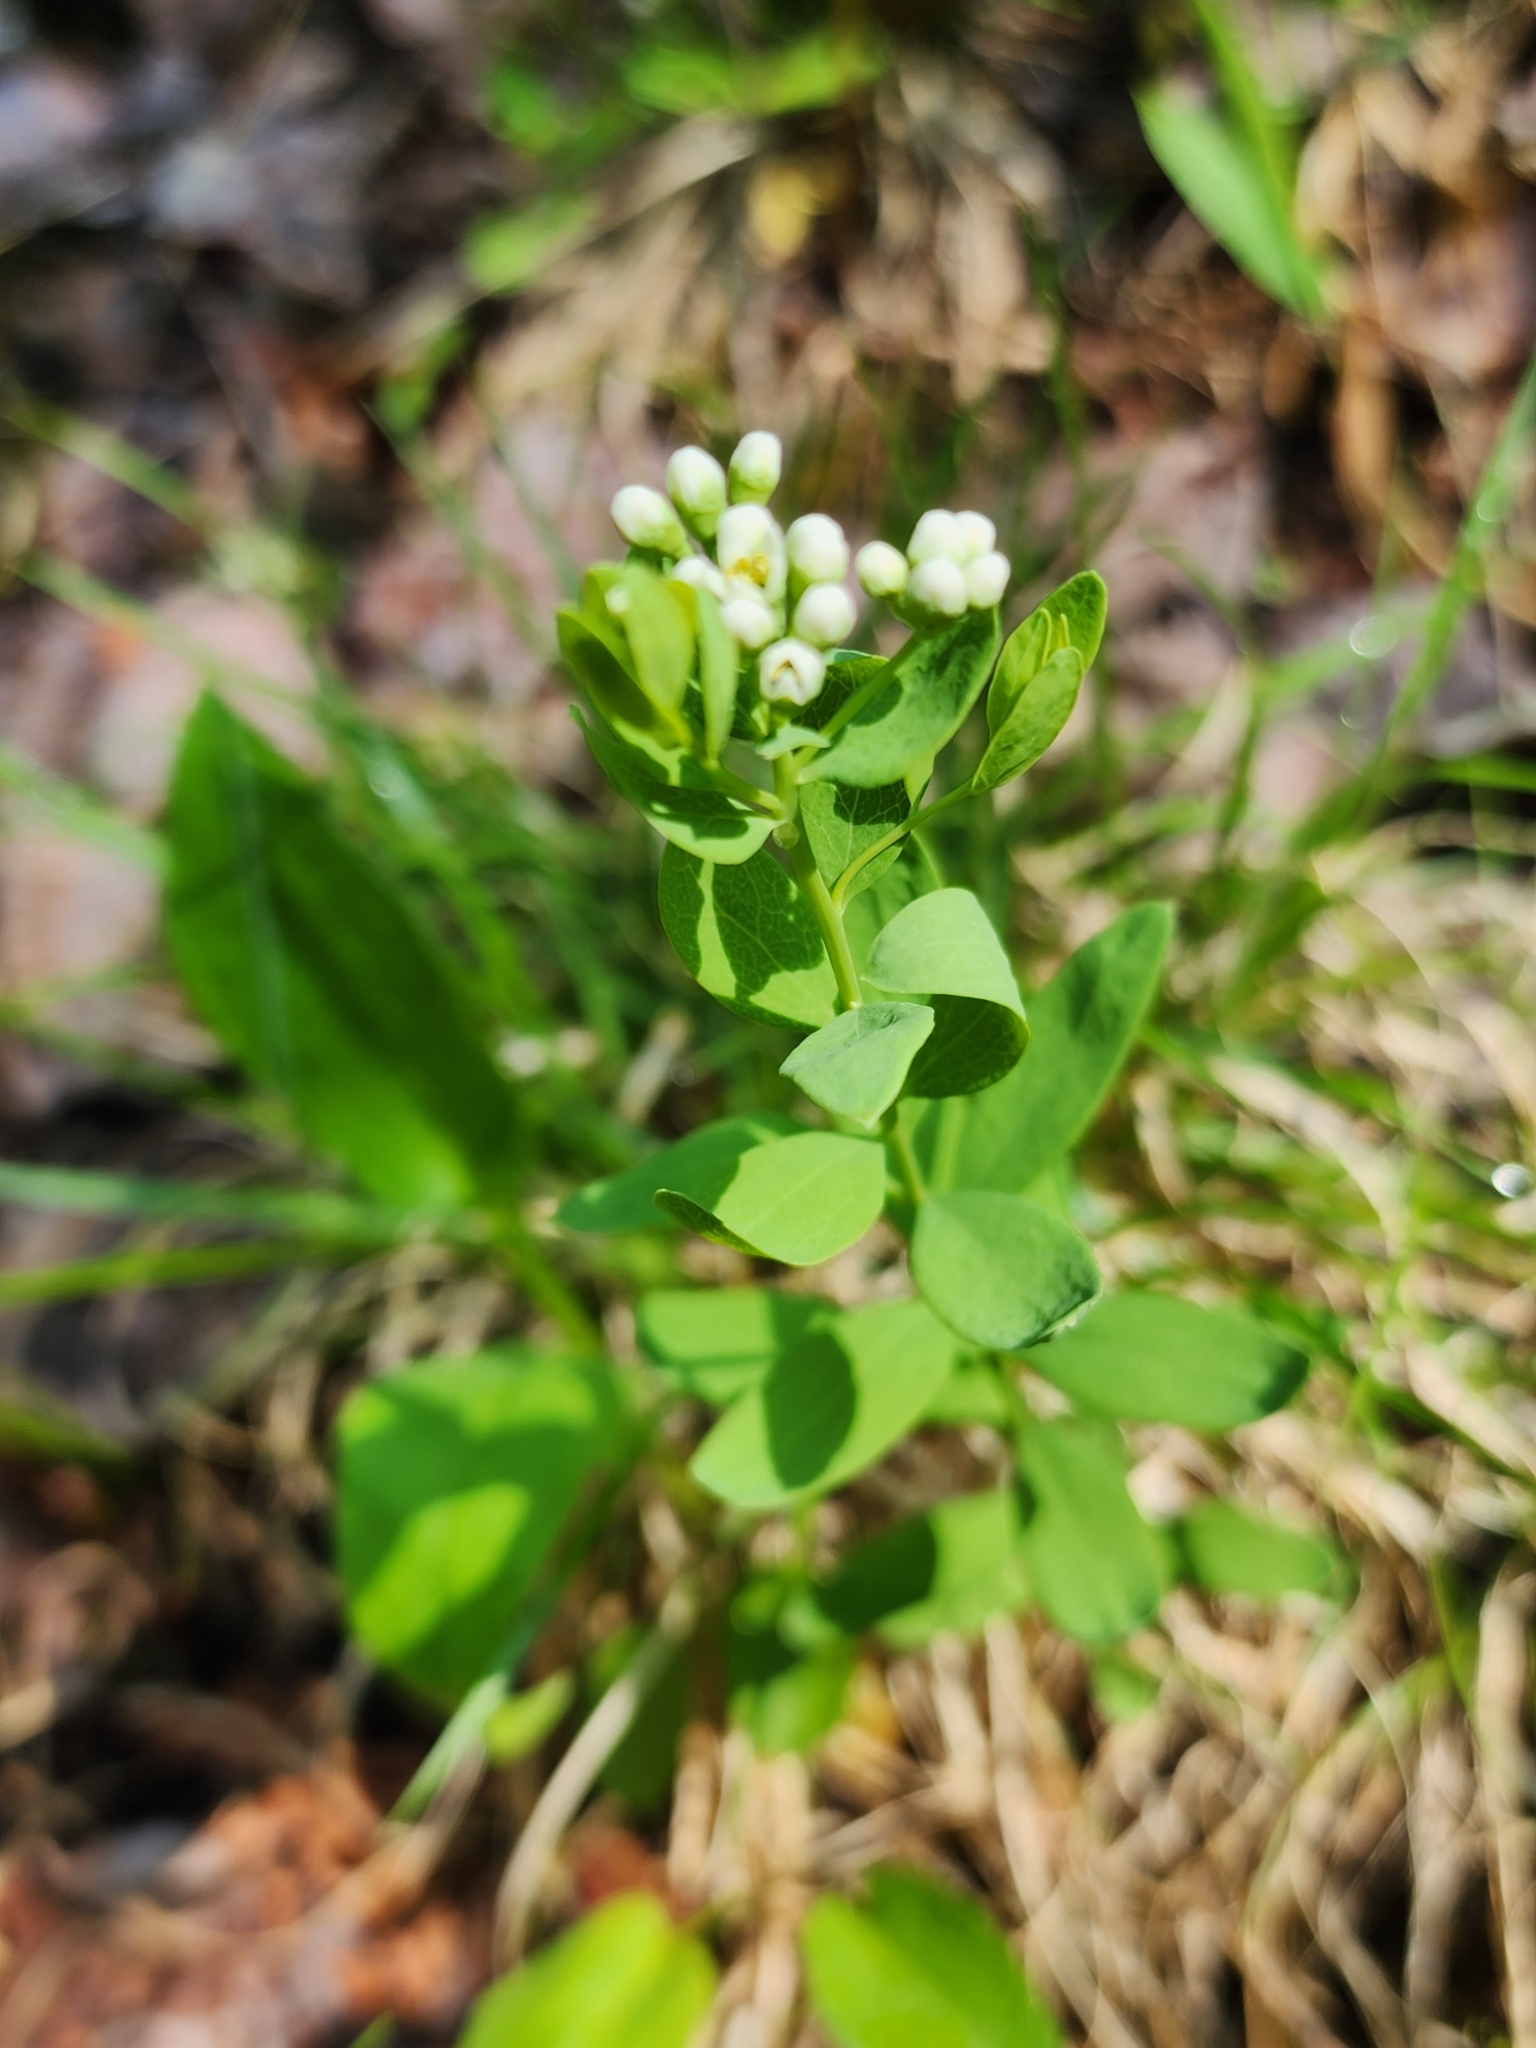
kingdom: Plantae
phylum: Tracheophyta
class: Magnoliopsida
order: Santalales
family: Comandraceae
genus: Comandra
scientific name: Comandra umbellata
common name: Bastard toadflax
